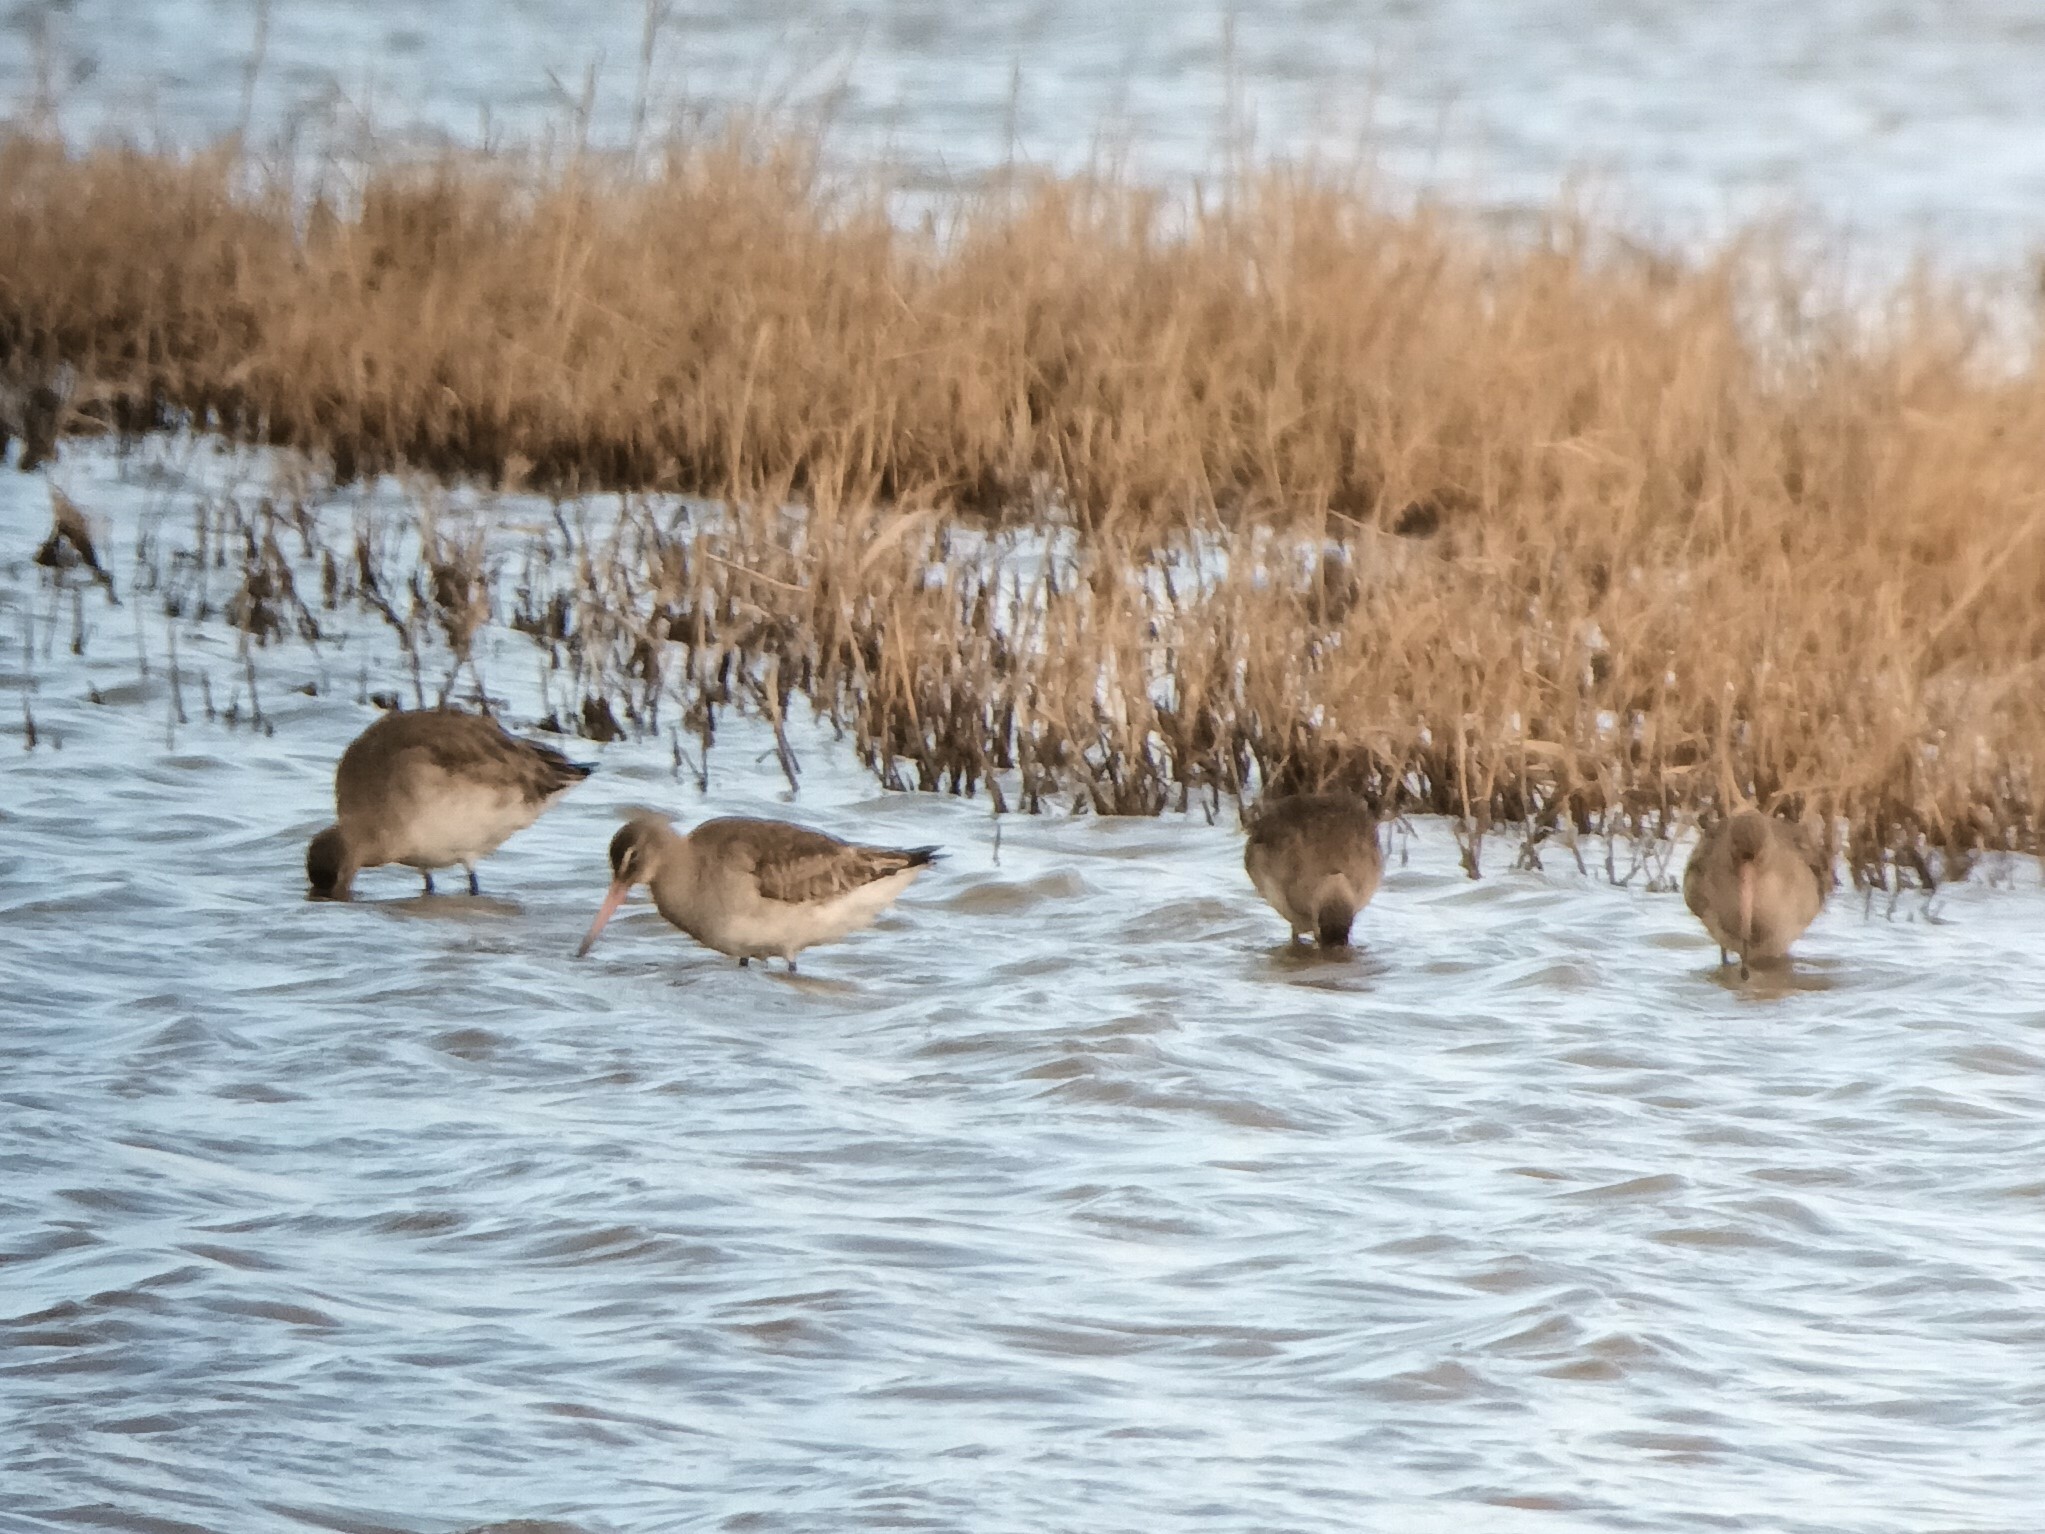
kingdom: Animalia
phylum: Chordata
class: Aves
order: Charadriiformes
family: Scolopacidae
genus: Limosa
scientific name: Limosa limosa
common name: Black-tailed godwit
